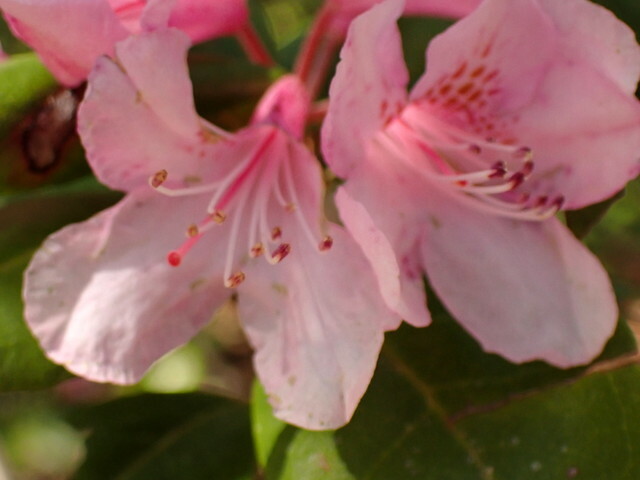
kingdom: Plantae
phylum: Tracheophyta
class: Magnoliopsida
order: Ericales
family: Ericaceae
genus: Rhododendron
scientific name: Rhododendron minus
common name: Piedmont rhododendron
